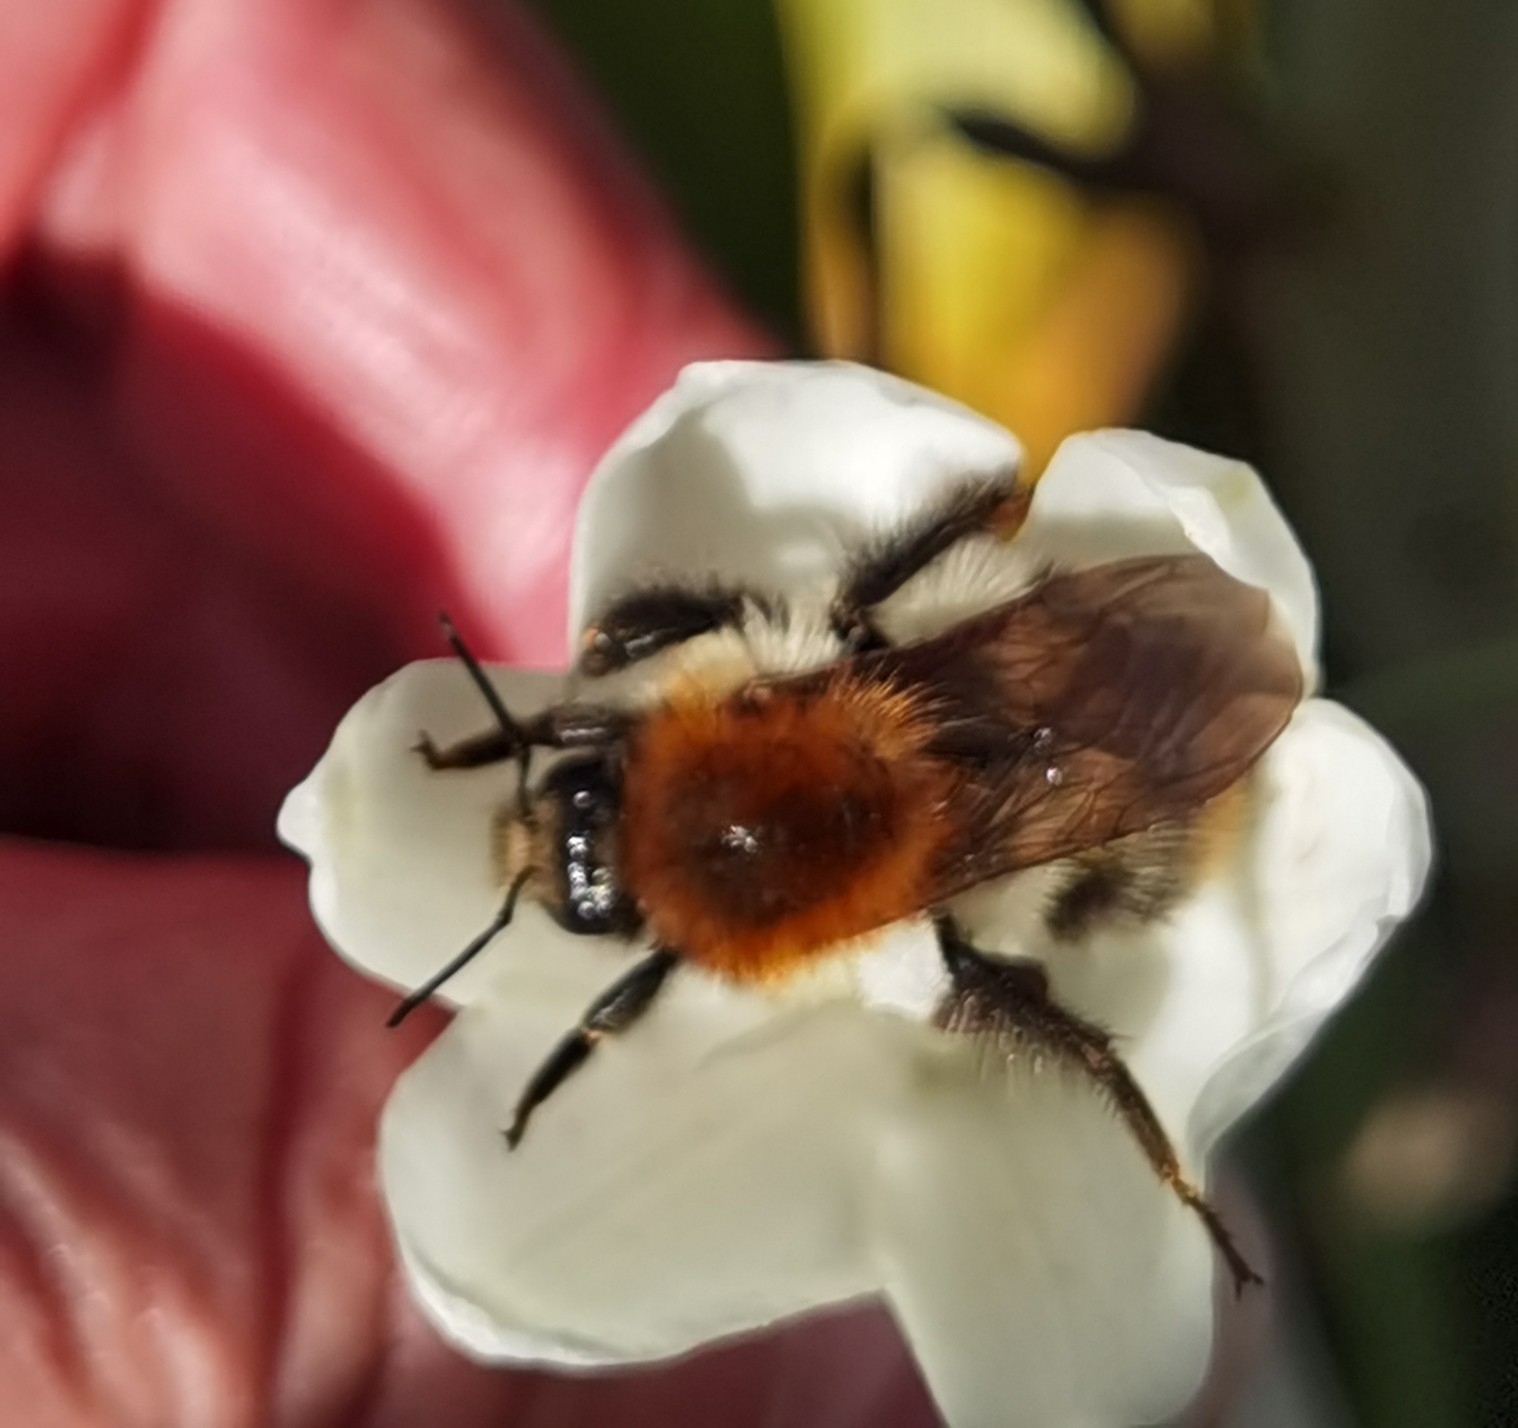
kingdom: Animalia
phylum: Arthropoda
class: Insecta
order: Hymenoptera
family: Apidae
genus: Bombus
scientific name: Bombus pascuorum
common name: Common carder bee
